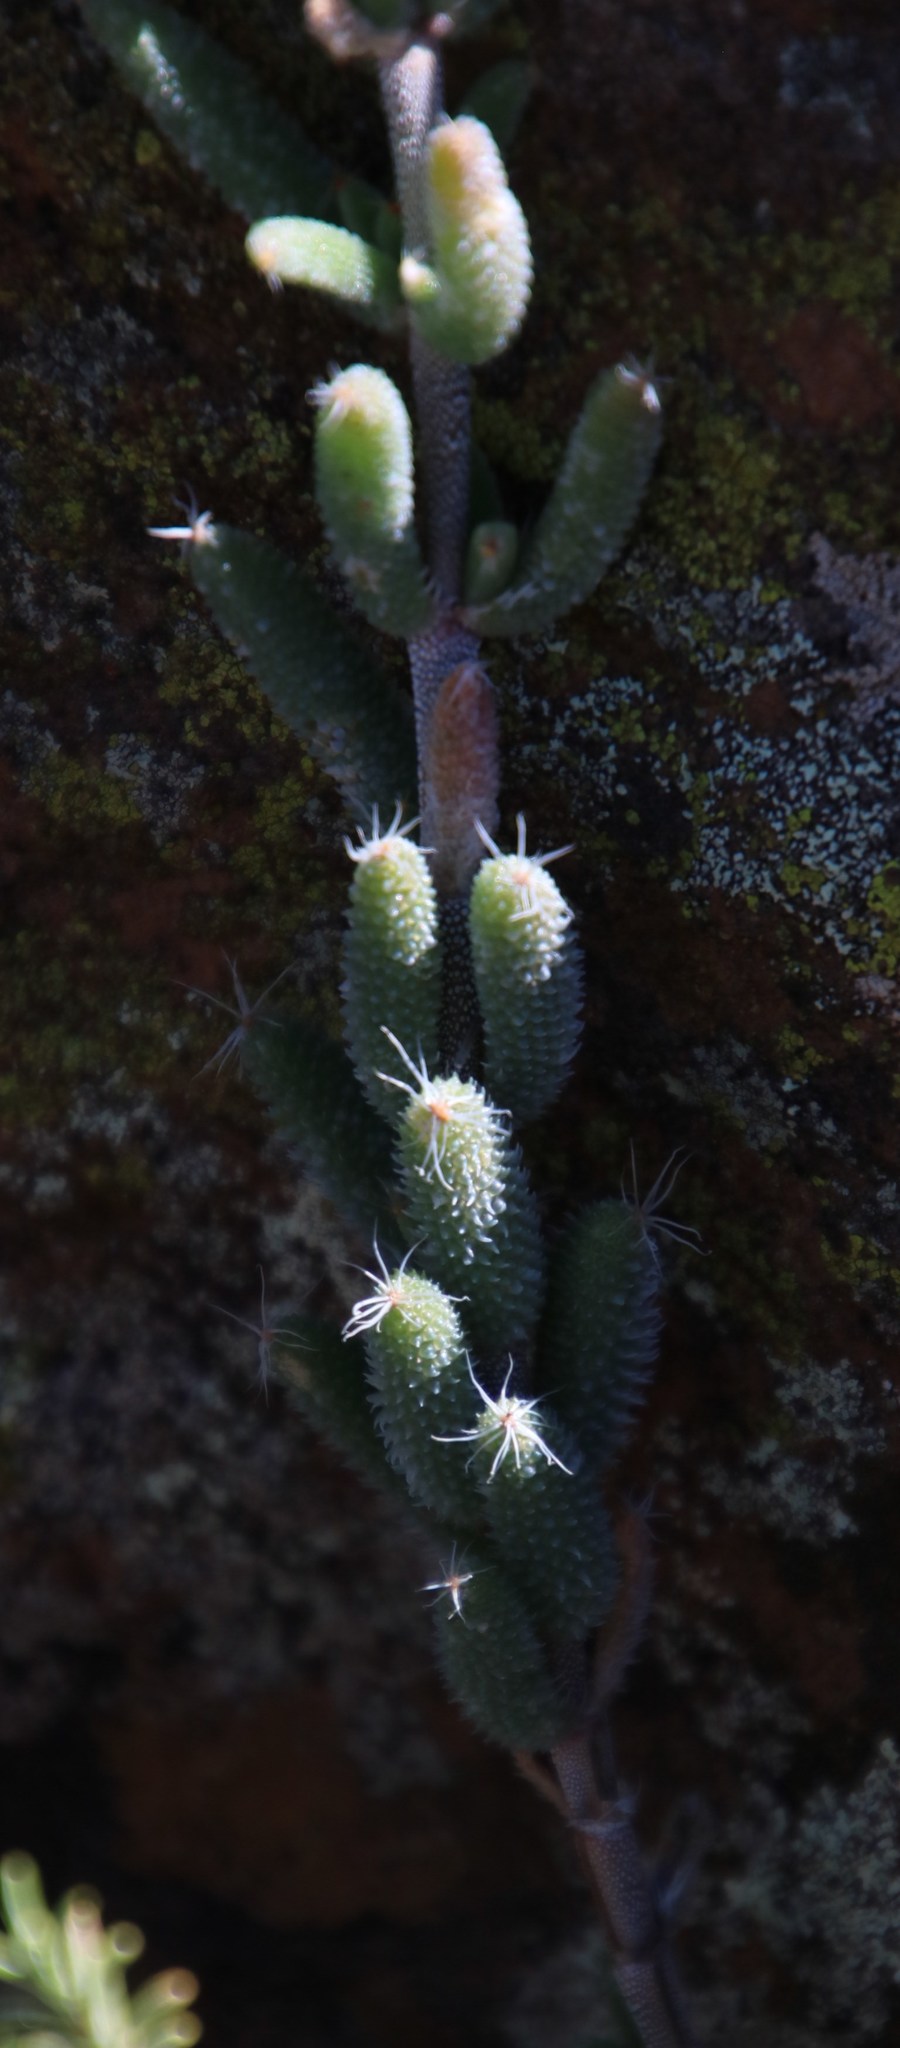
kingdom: Plantae
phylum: Tracheophyta
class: Magnoliopsida
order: Caryophyllales
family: Aizoaceae
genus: Trichodiadema
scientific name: Trichodiadema setuliferum
